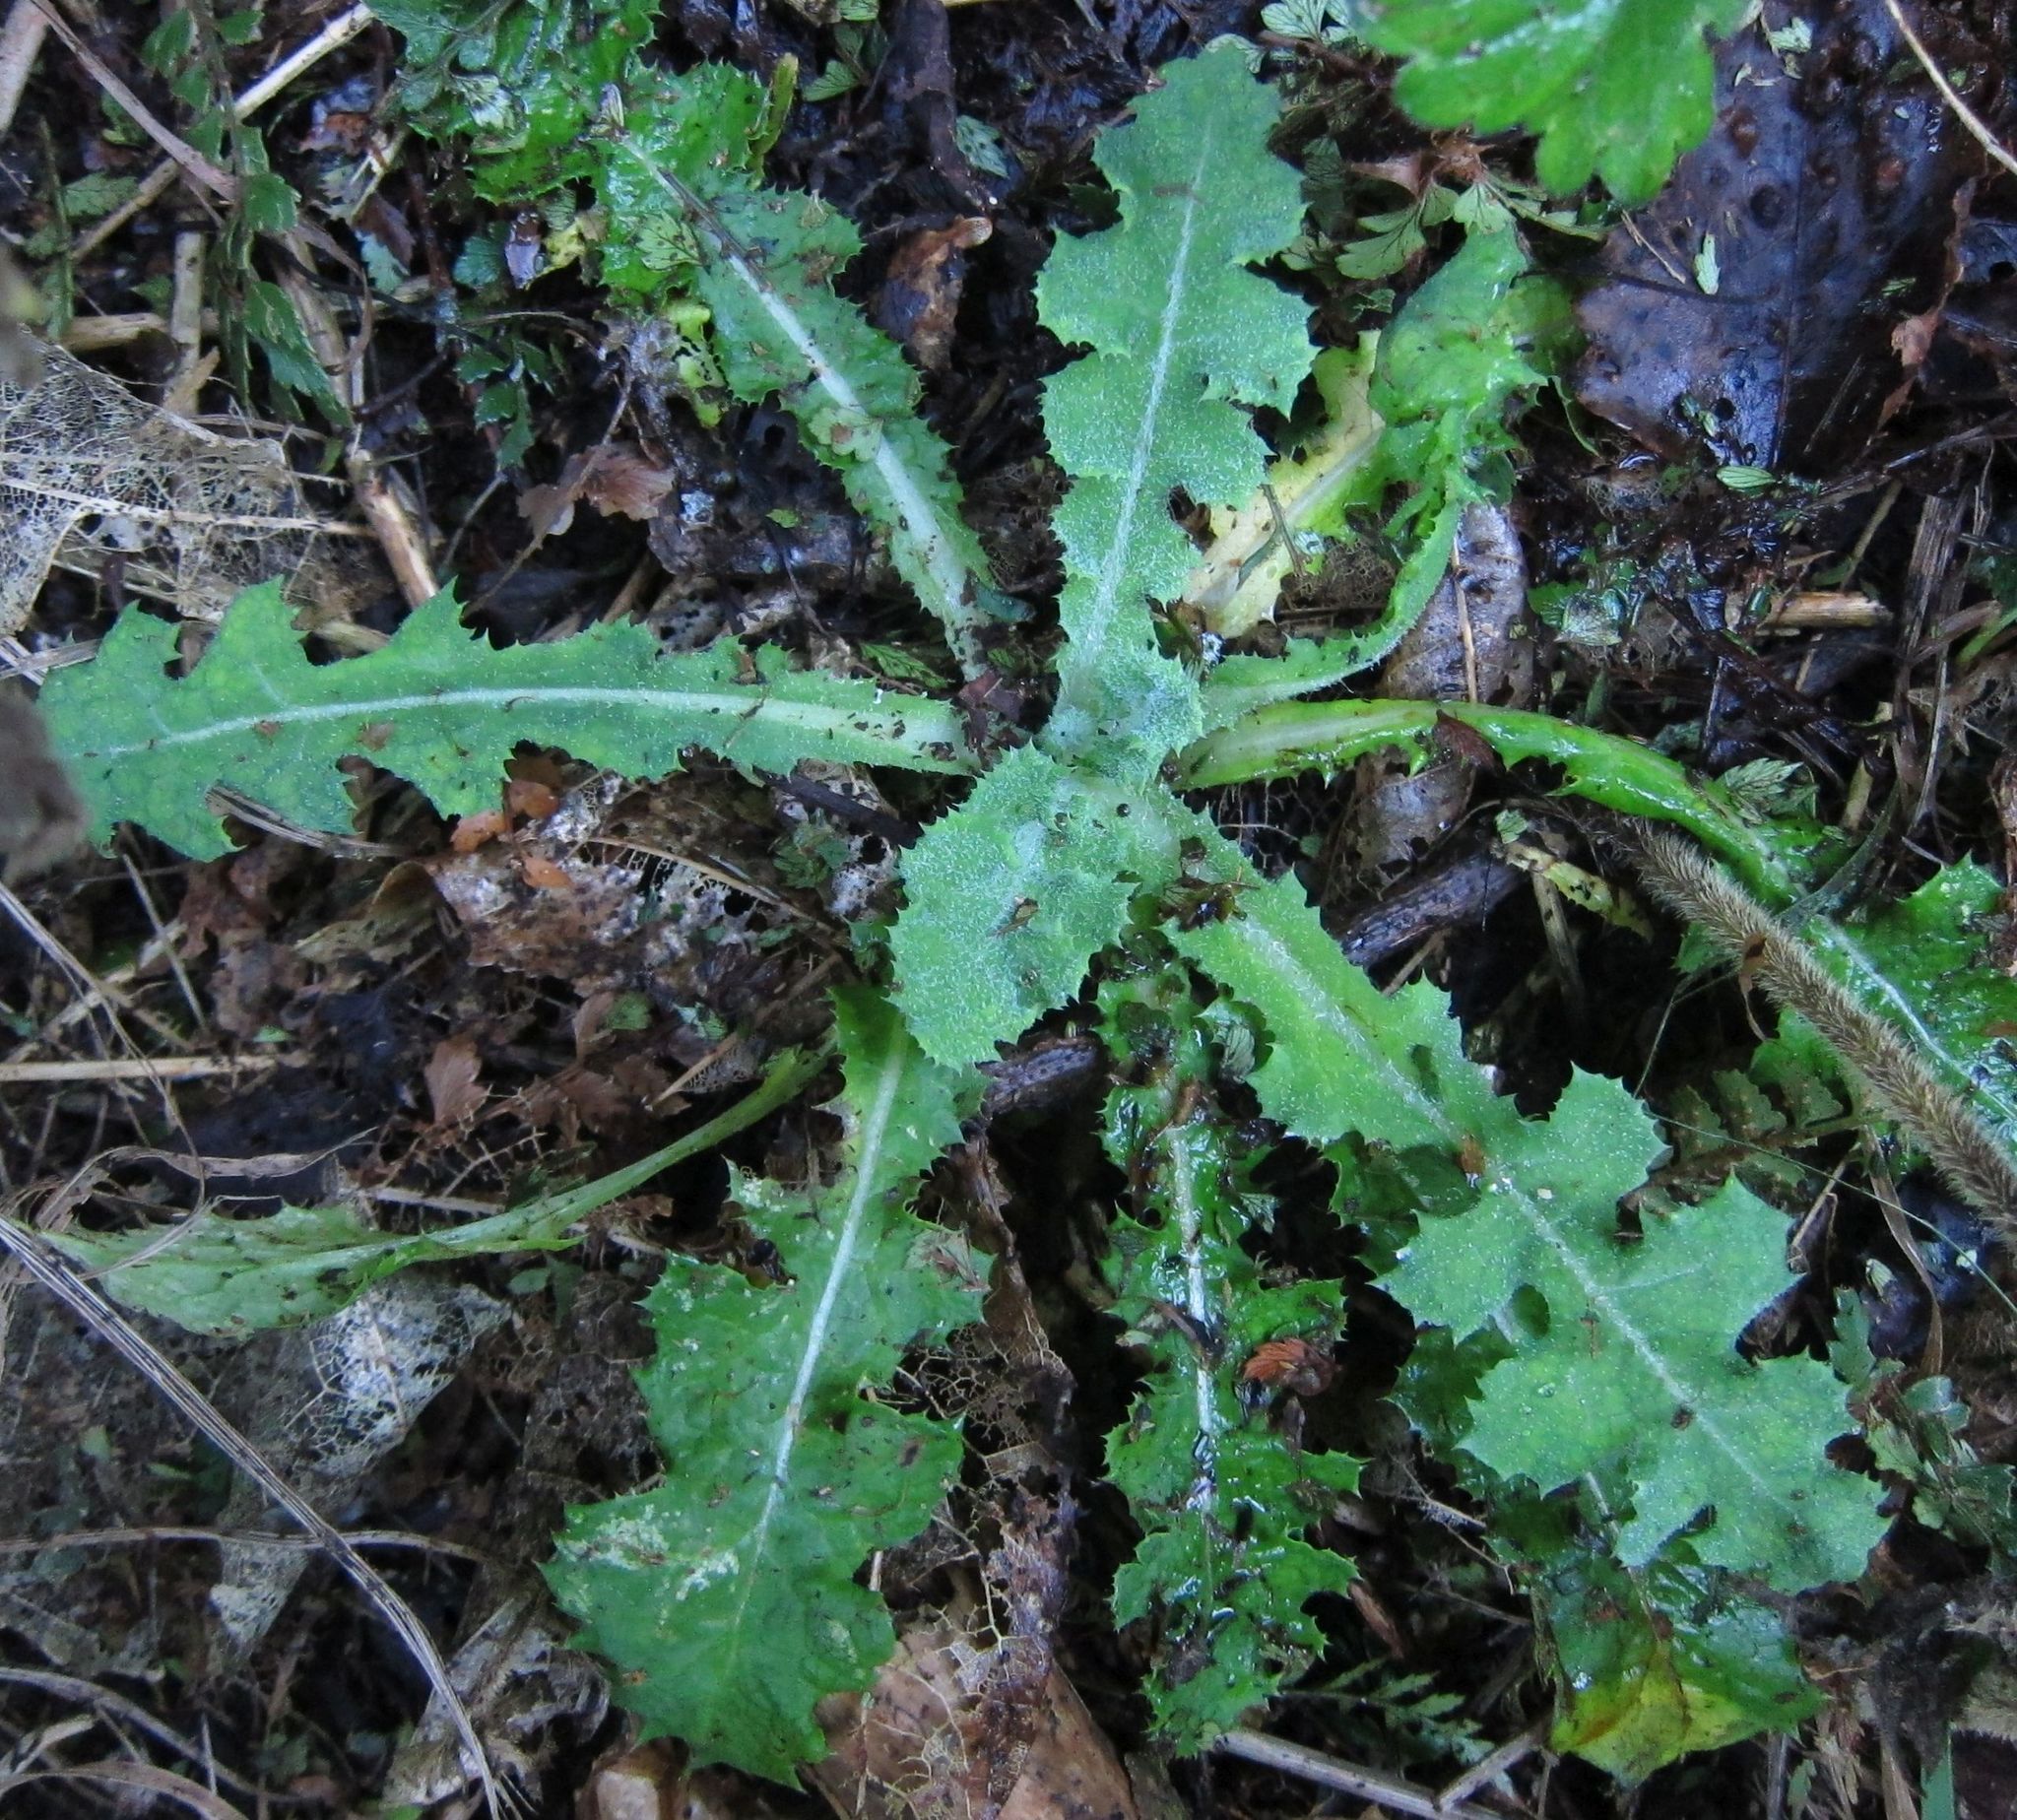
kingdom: Plantae
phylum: Tracheophyta
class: Magnoliopsida
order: Asterales
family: Asteraceae
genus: Sonchus
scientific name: Sonchus oleraceus
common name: Common sowthistle
